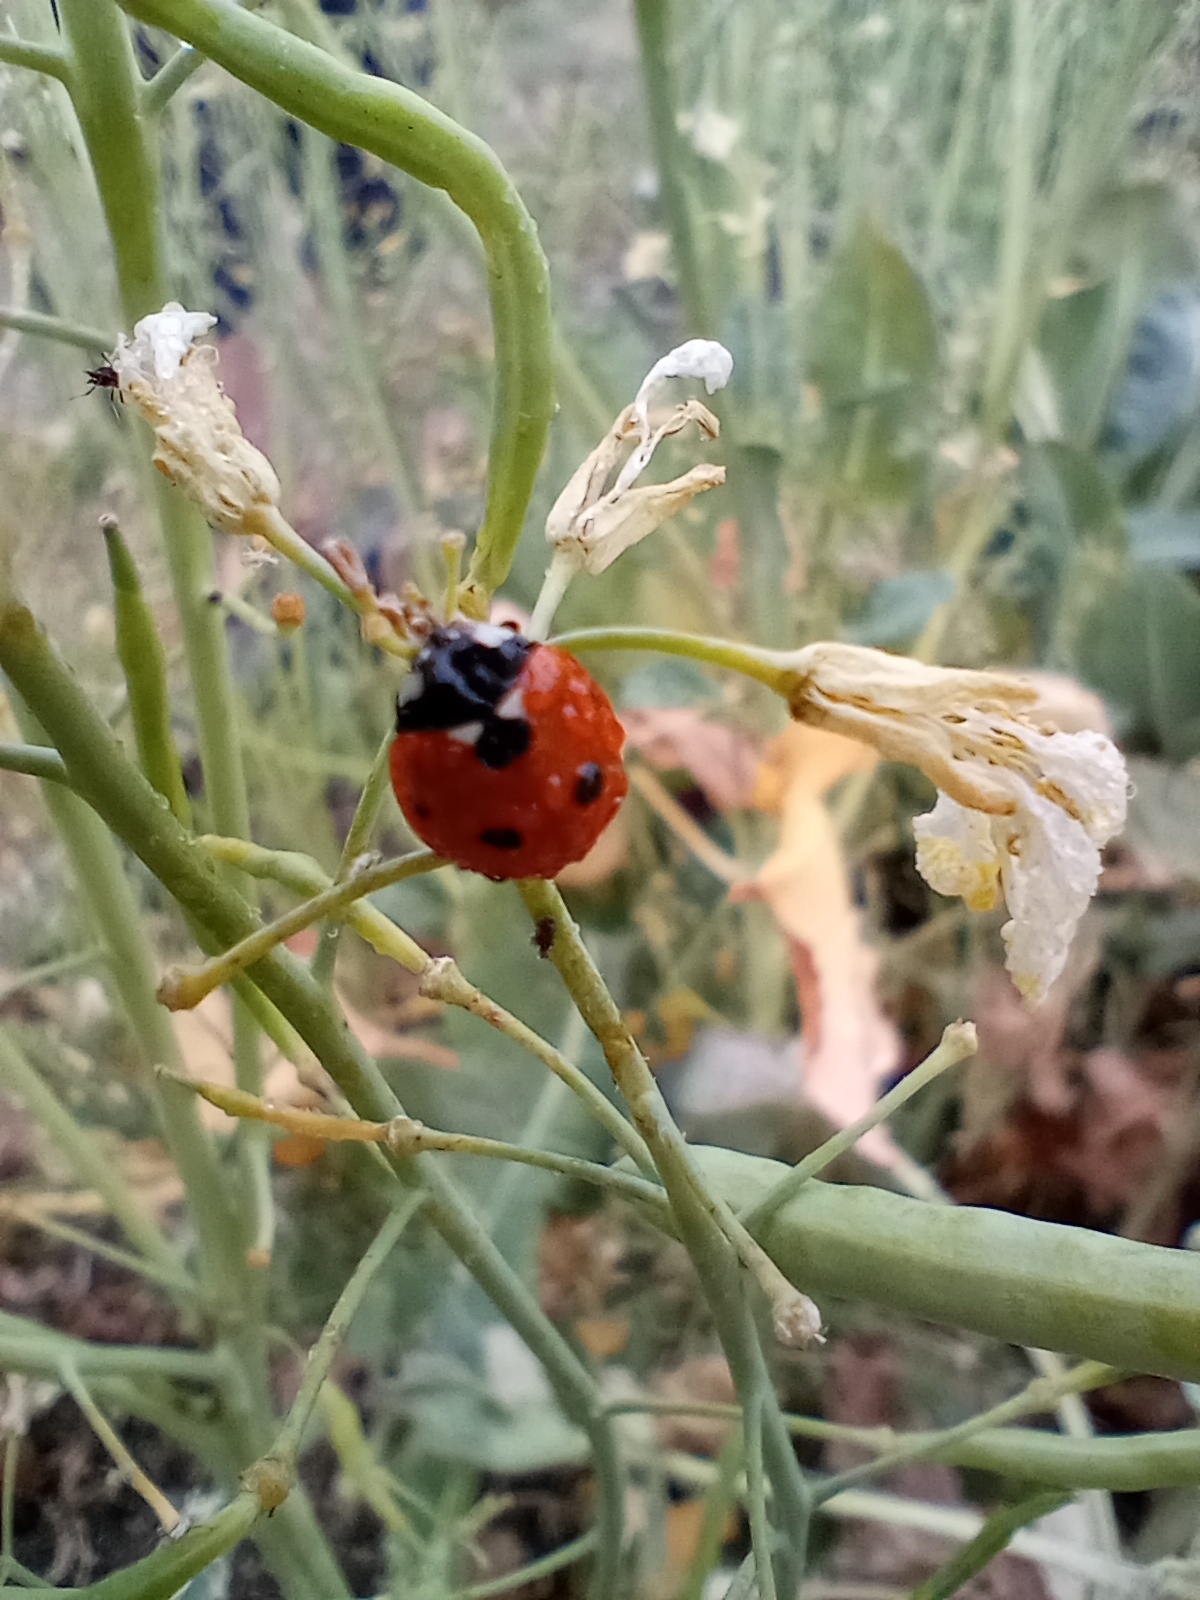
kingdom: Animalia
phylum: Arthropoda
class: Insecta
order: Coleoptera
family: Coccinellidae
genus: Coccinella
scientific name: Coccinella septempunctata
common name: Sevenspotted lady beetle
